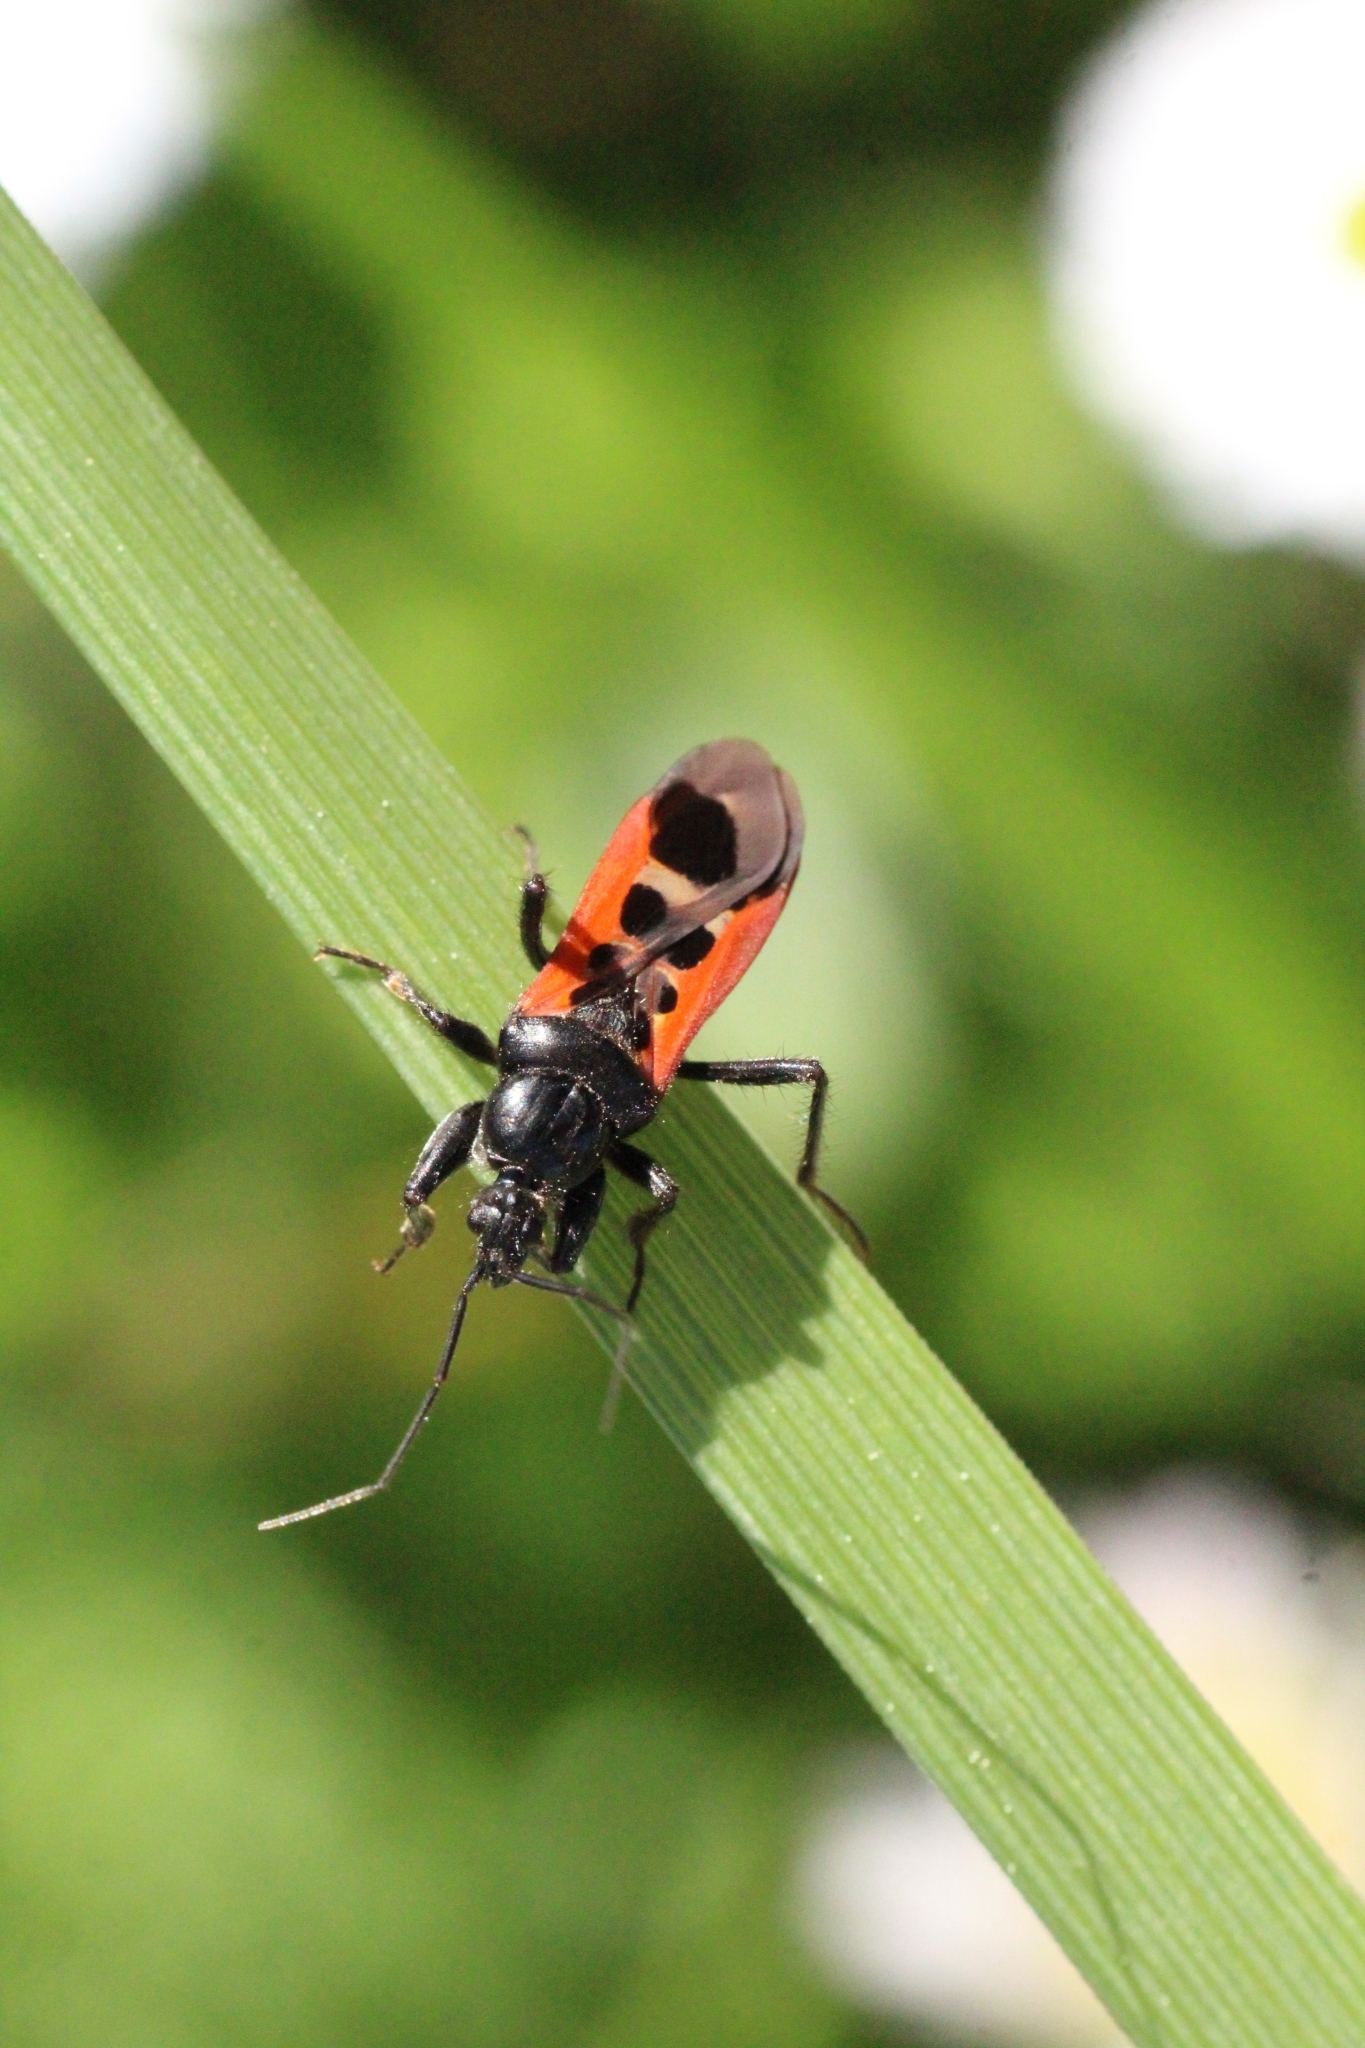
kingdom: Animalia
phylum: Arthropoda
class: Insecta
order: Hemiptera
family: Reduviidae
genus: Peirates
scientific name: Peirates stridulus
